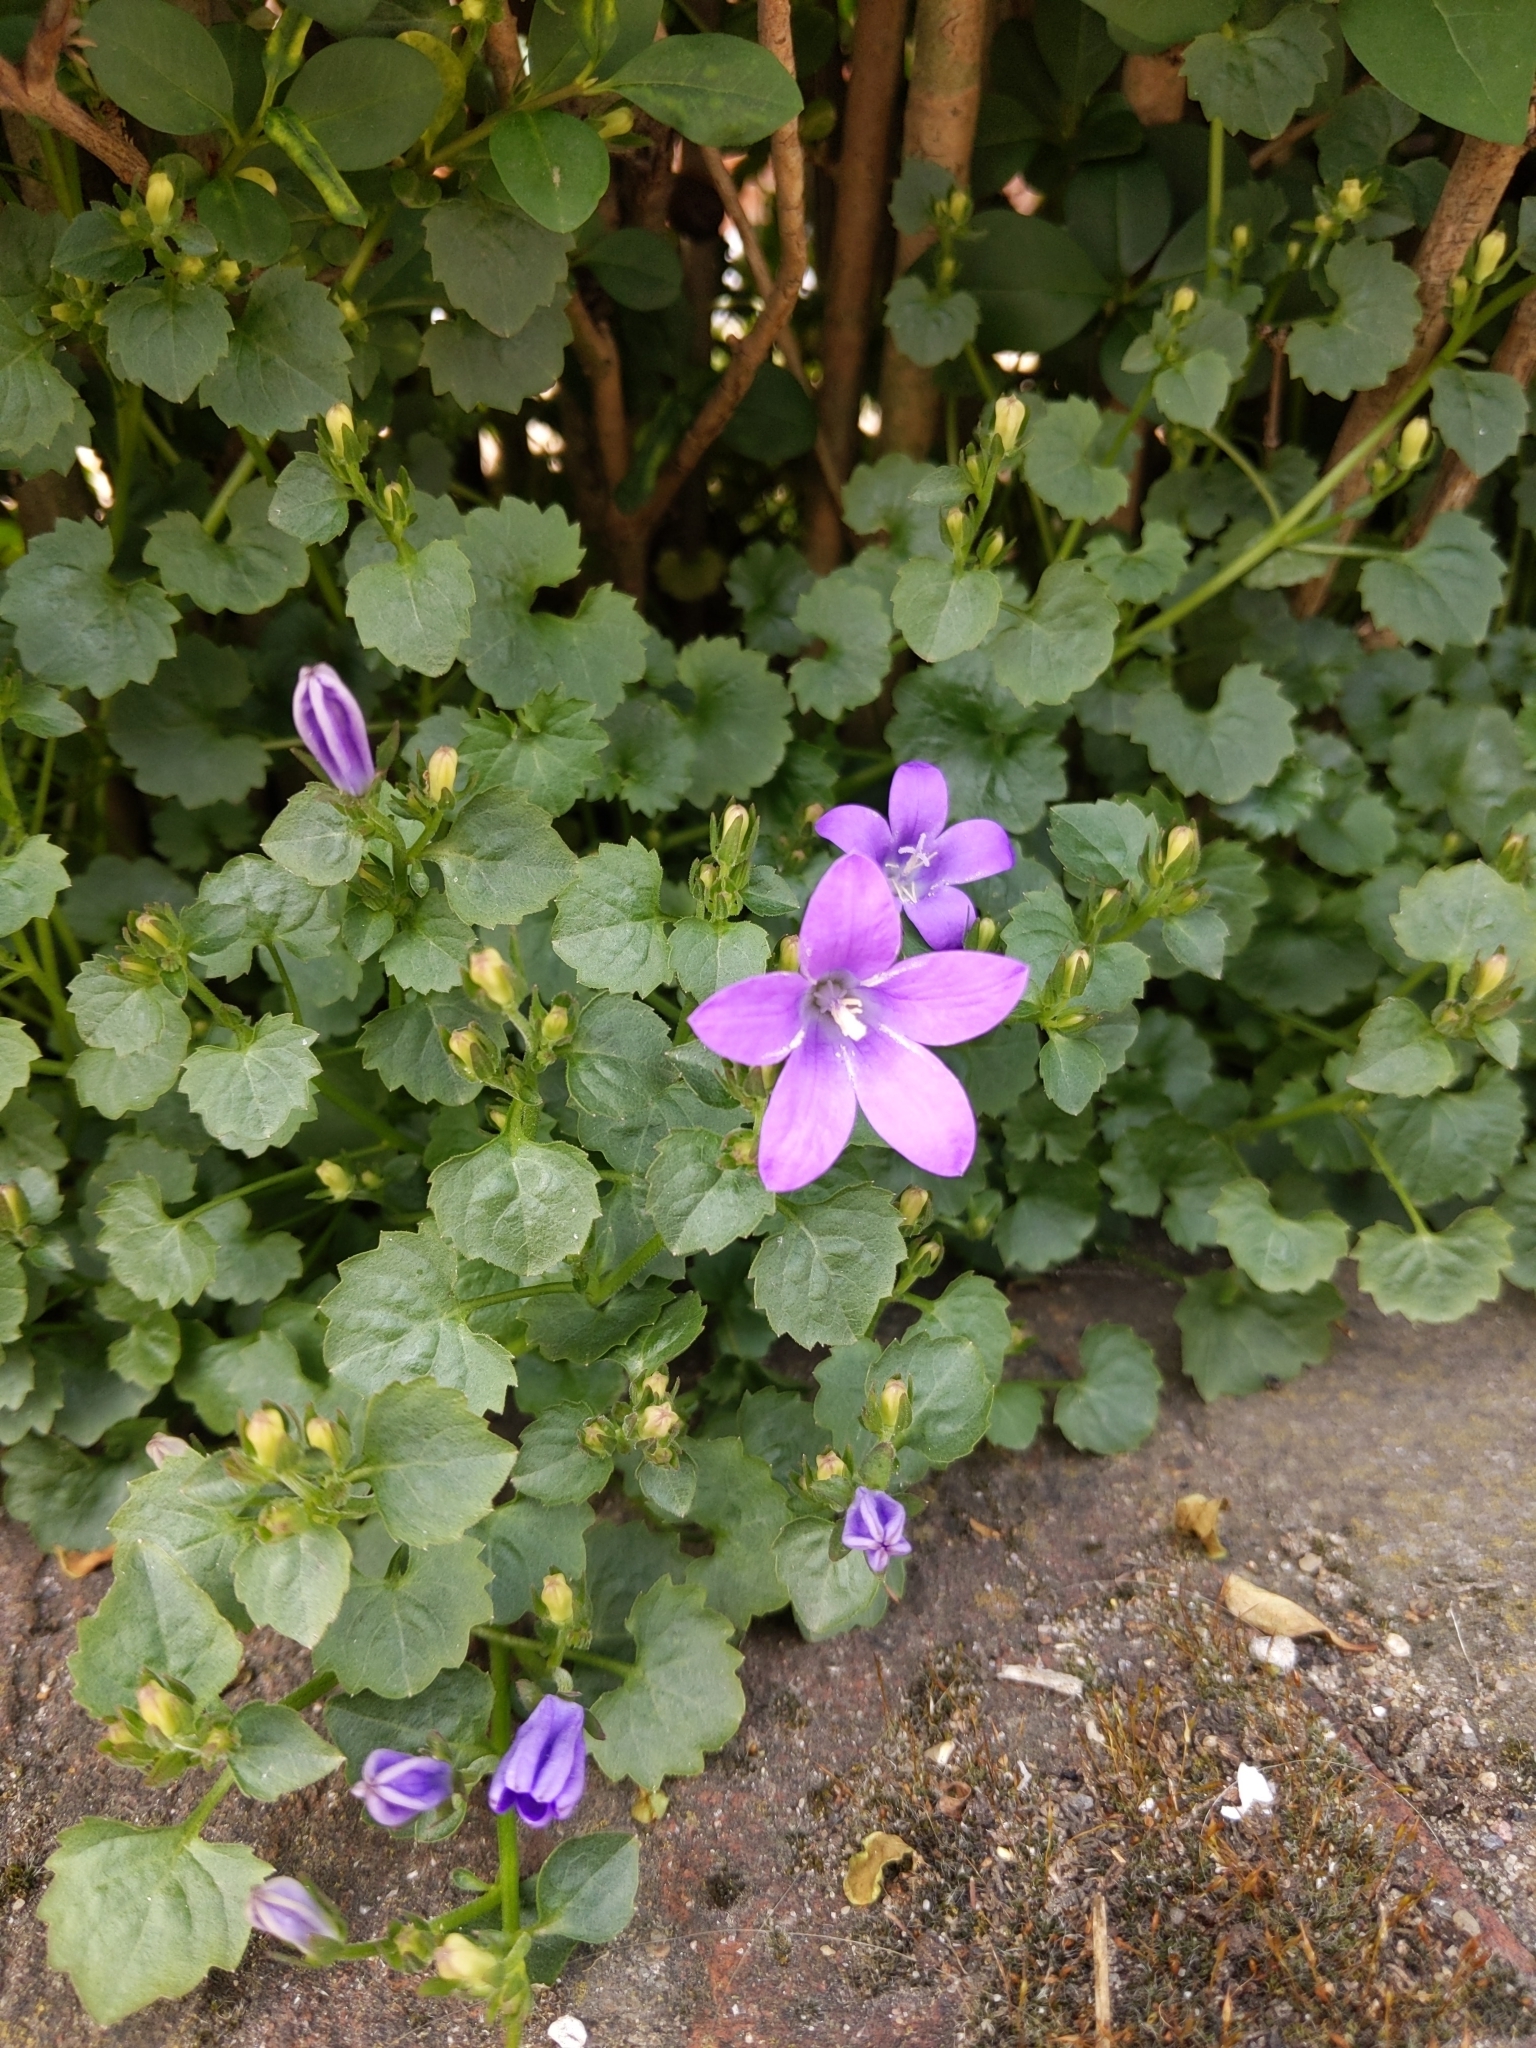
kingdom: Plantae
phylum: Tracheophyta
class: Magnoliopsida
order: Asterales
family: Campanulaceae
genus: Campanula
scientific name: Campanula poscharskyana
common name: Trailing bellflower
